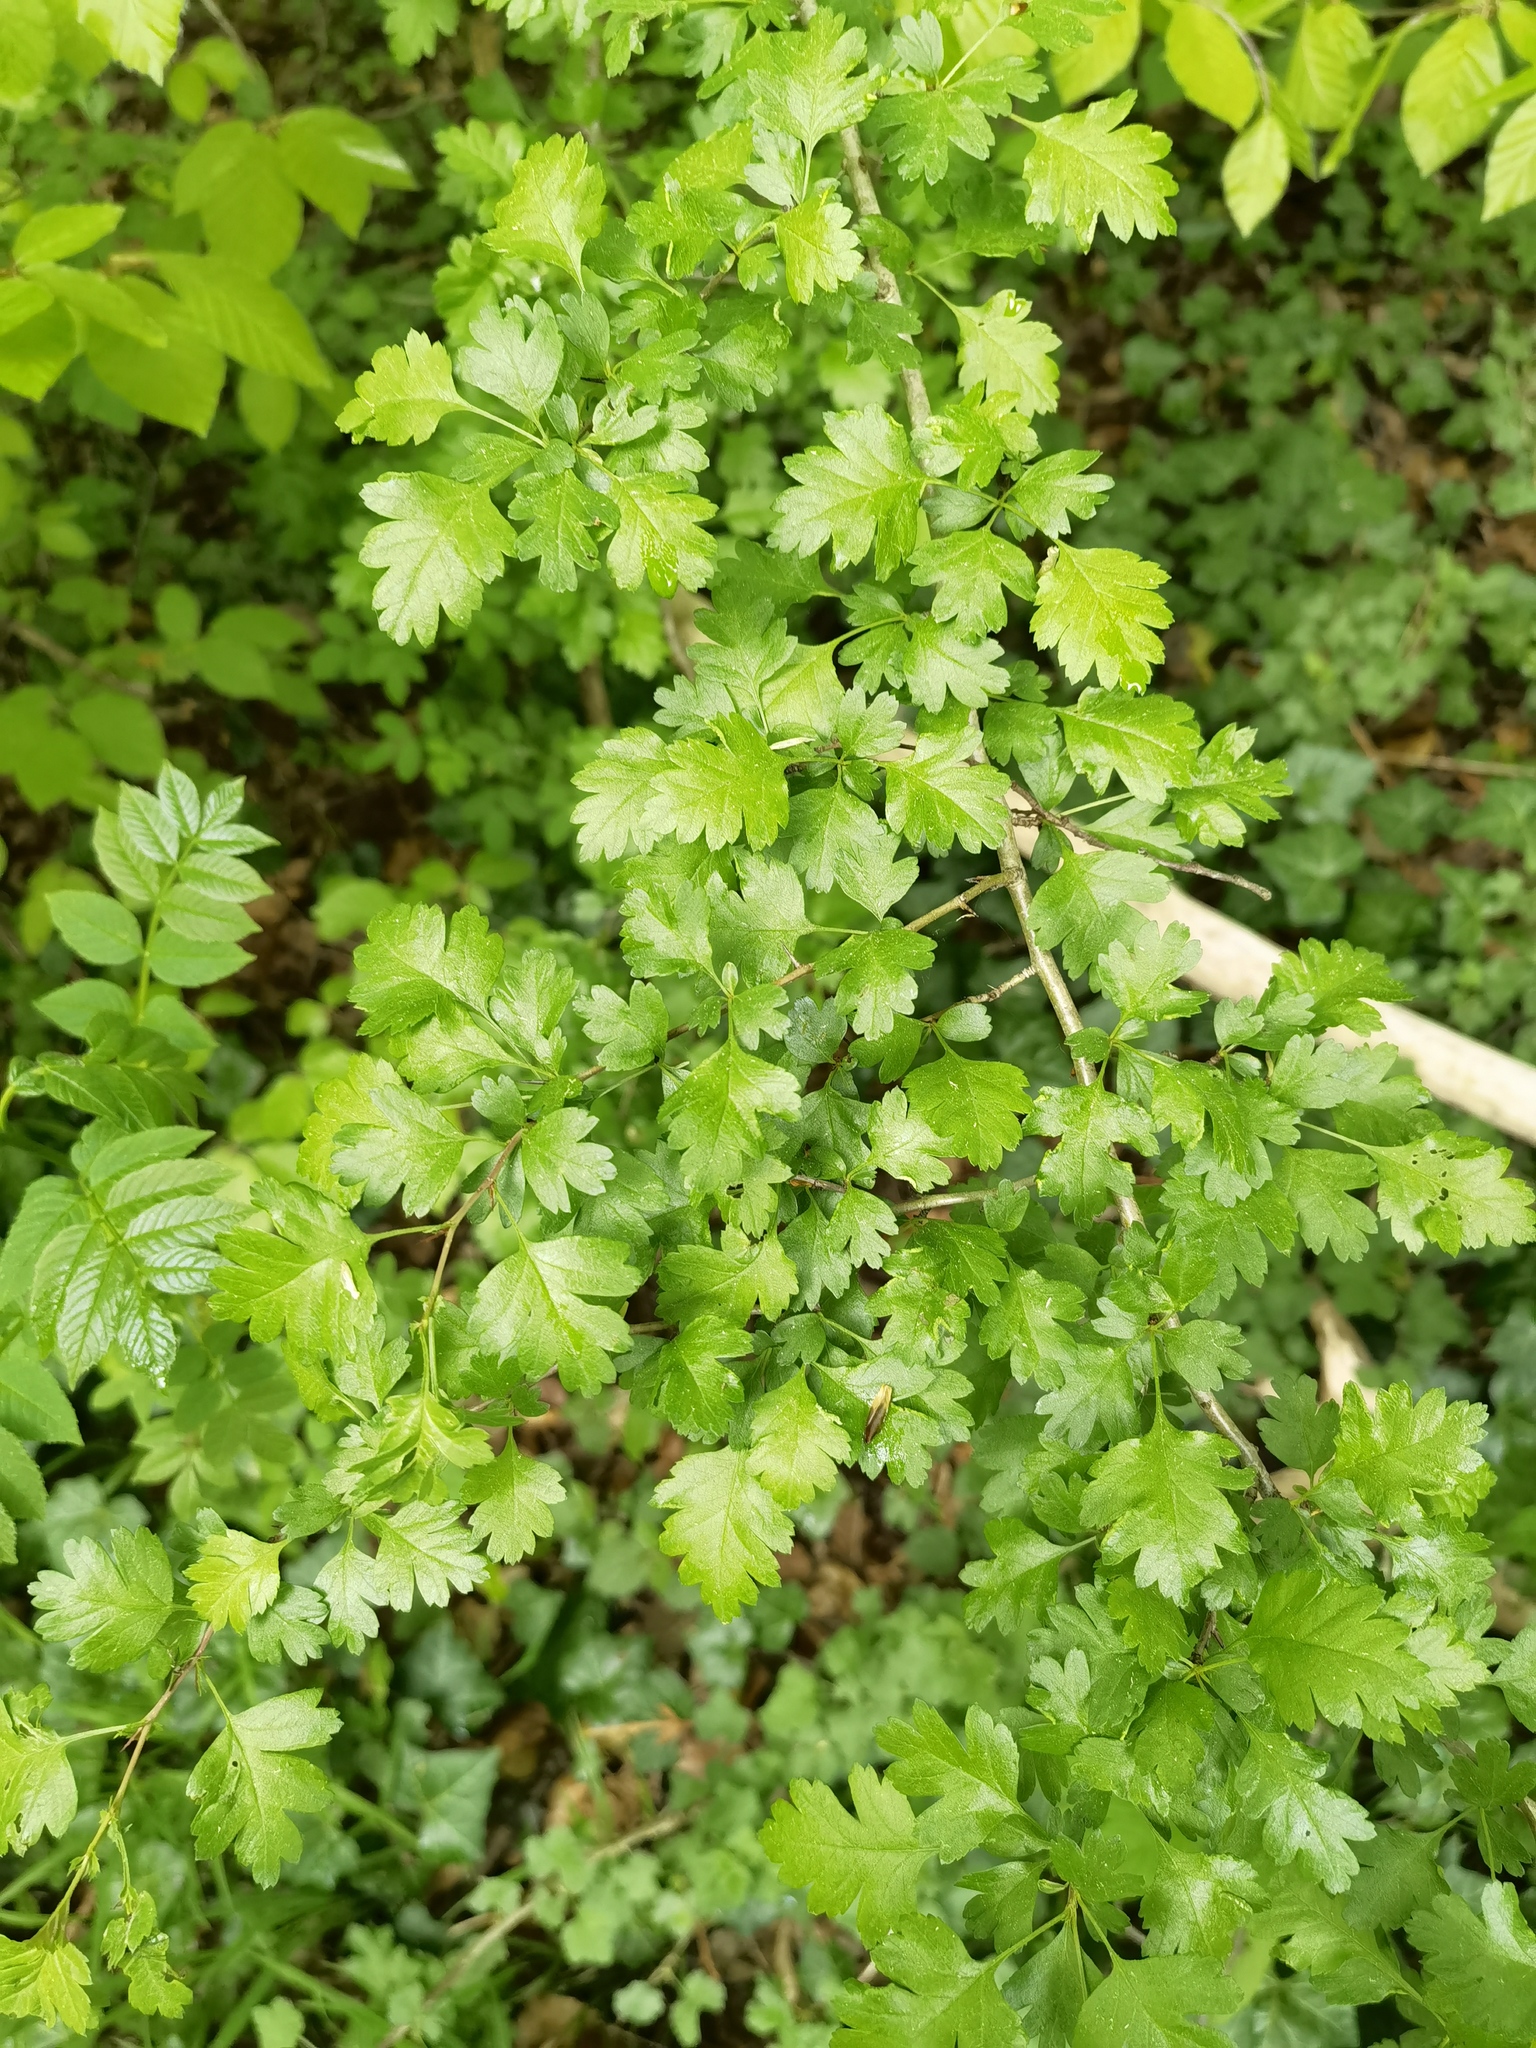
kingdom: Plantae
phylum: Tracheophyta
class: Magnoliopsida
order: Rosales
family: Rosaceae
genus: Crataegus
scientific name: Crataegus monogyna
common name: Hawthorn
